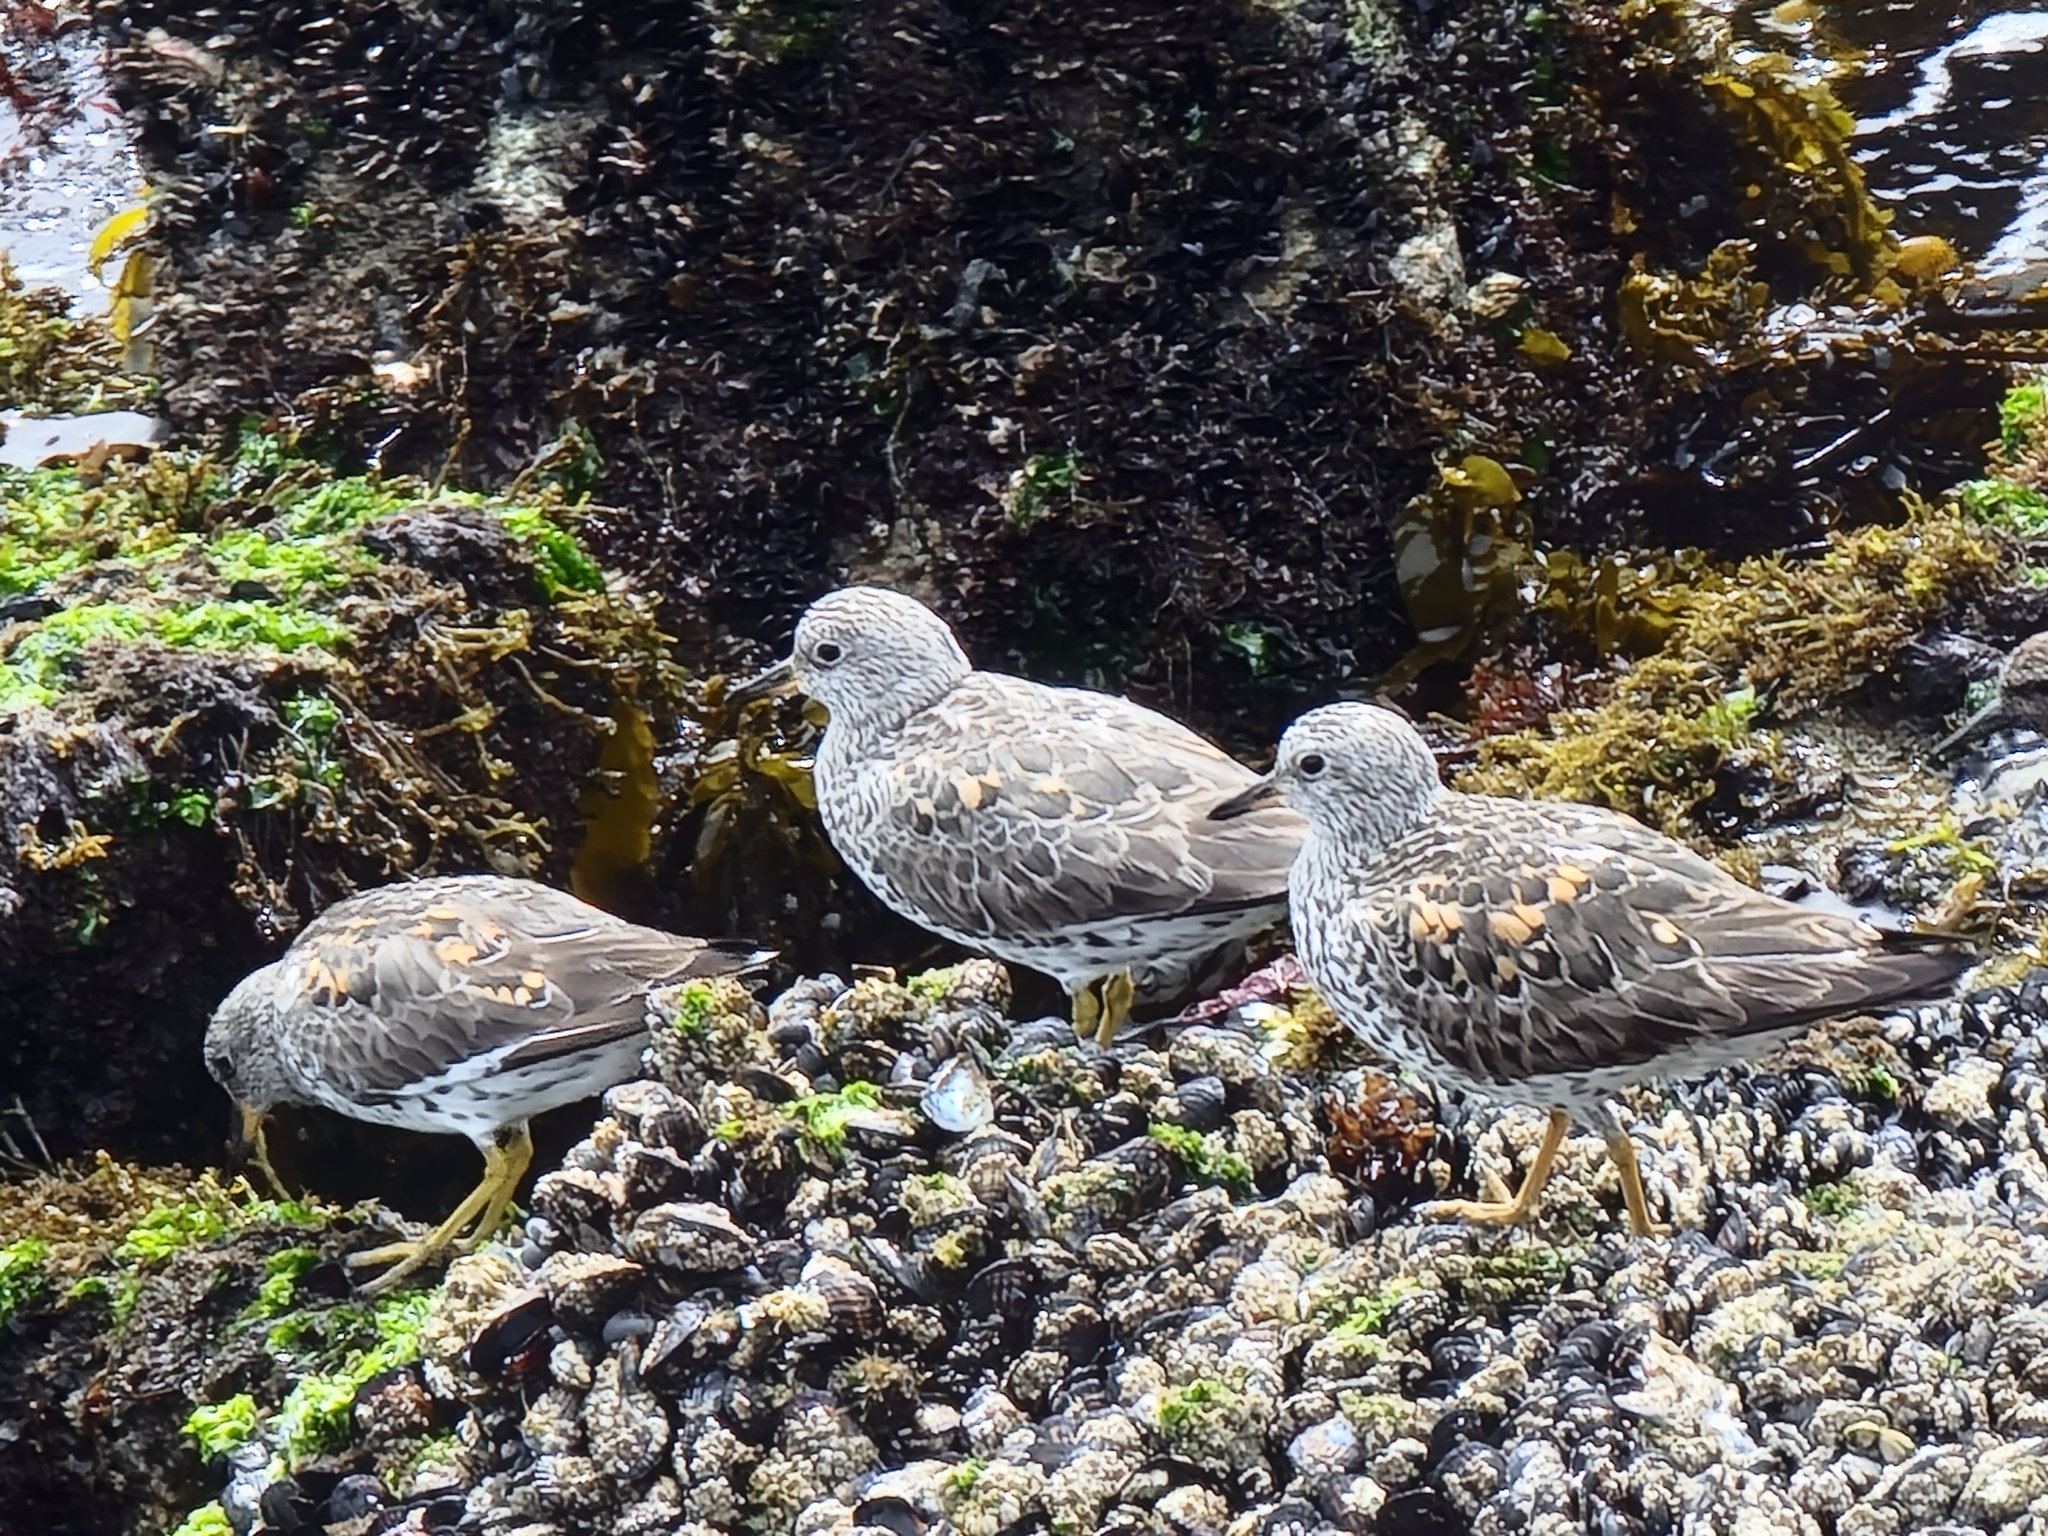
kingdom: Animalia
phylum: Chordata
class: Aves
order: Charadriiformes
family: Scolopacidae
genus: Calidris
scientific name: Calidris virgata
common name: Surfbird
